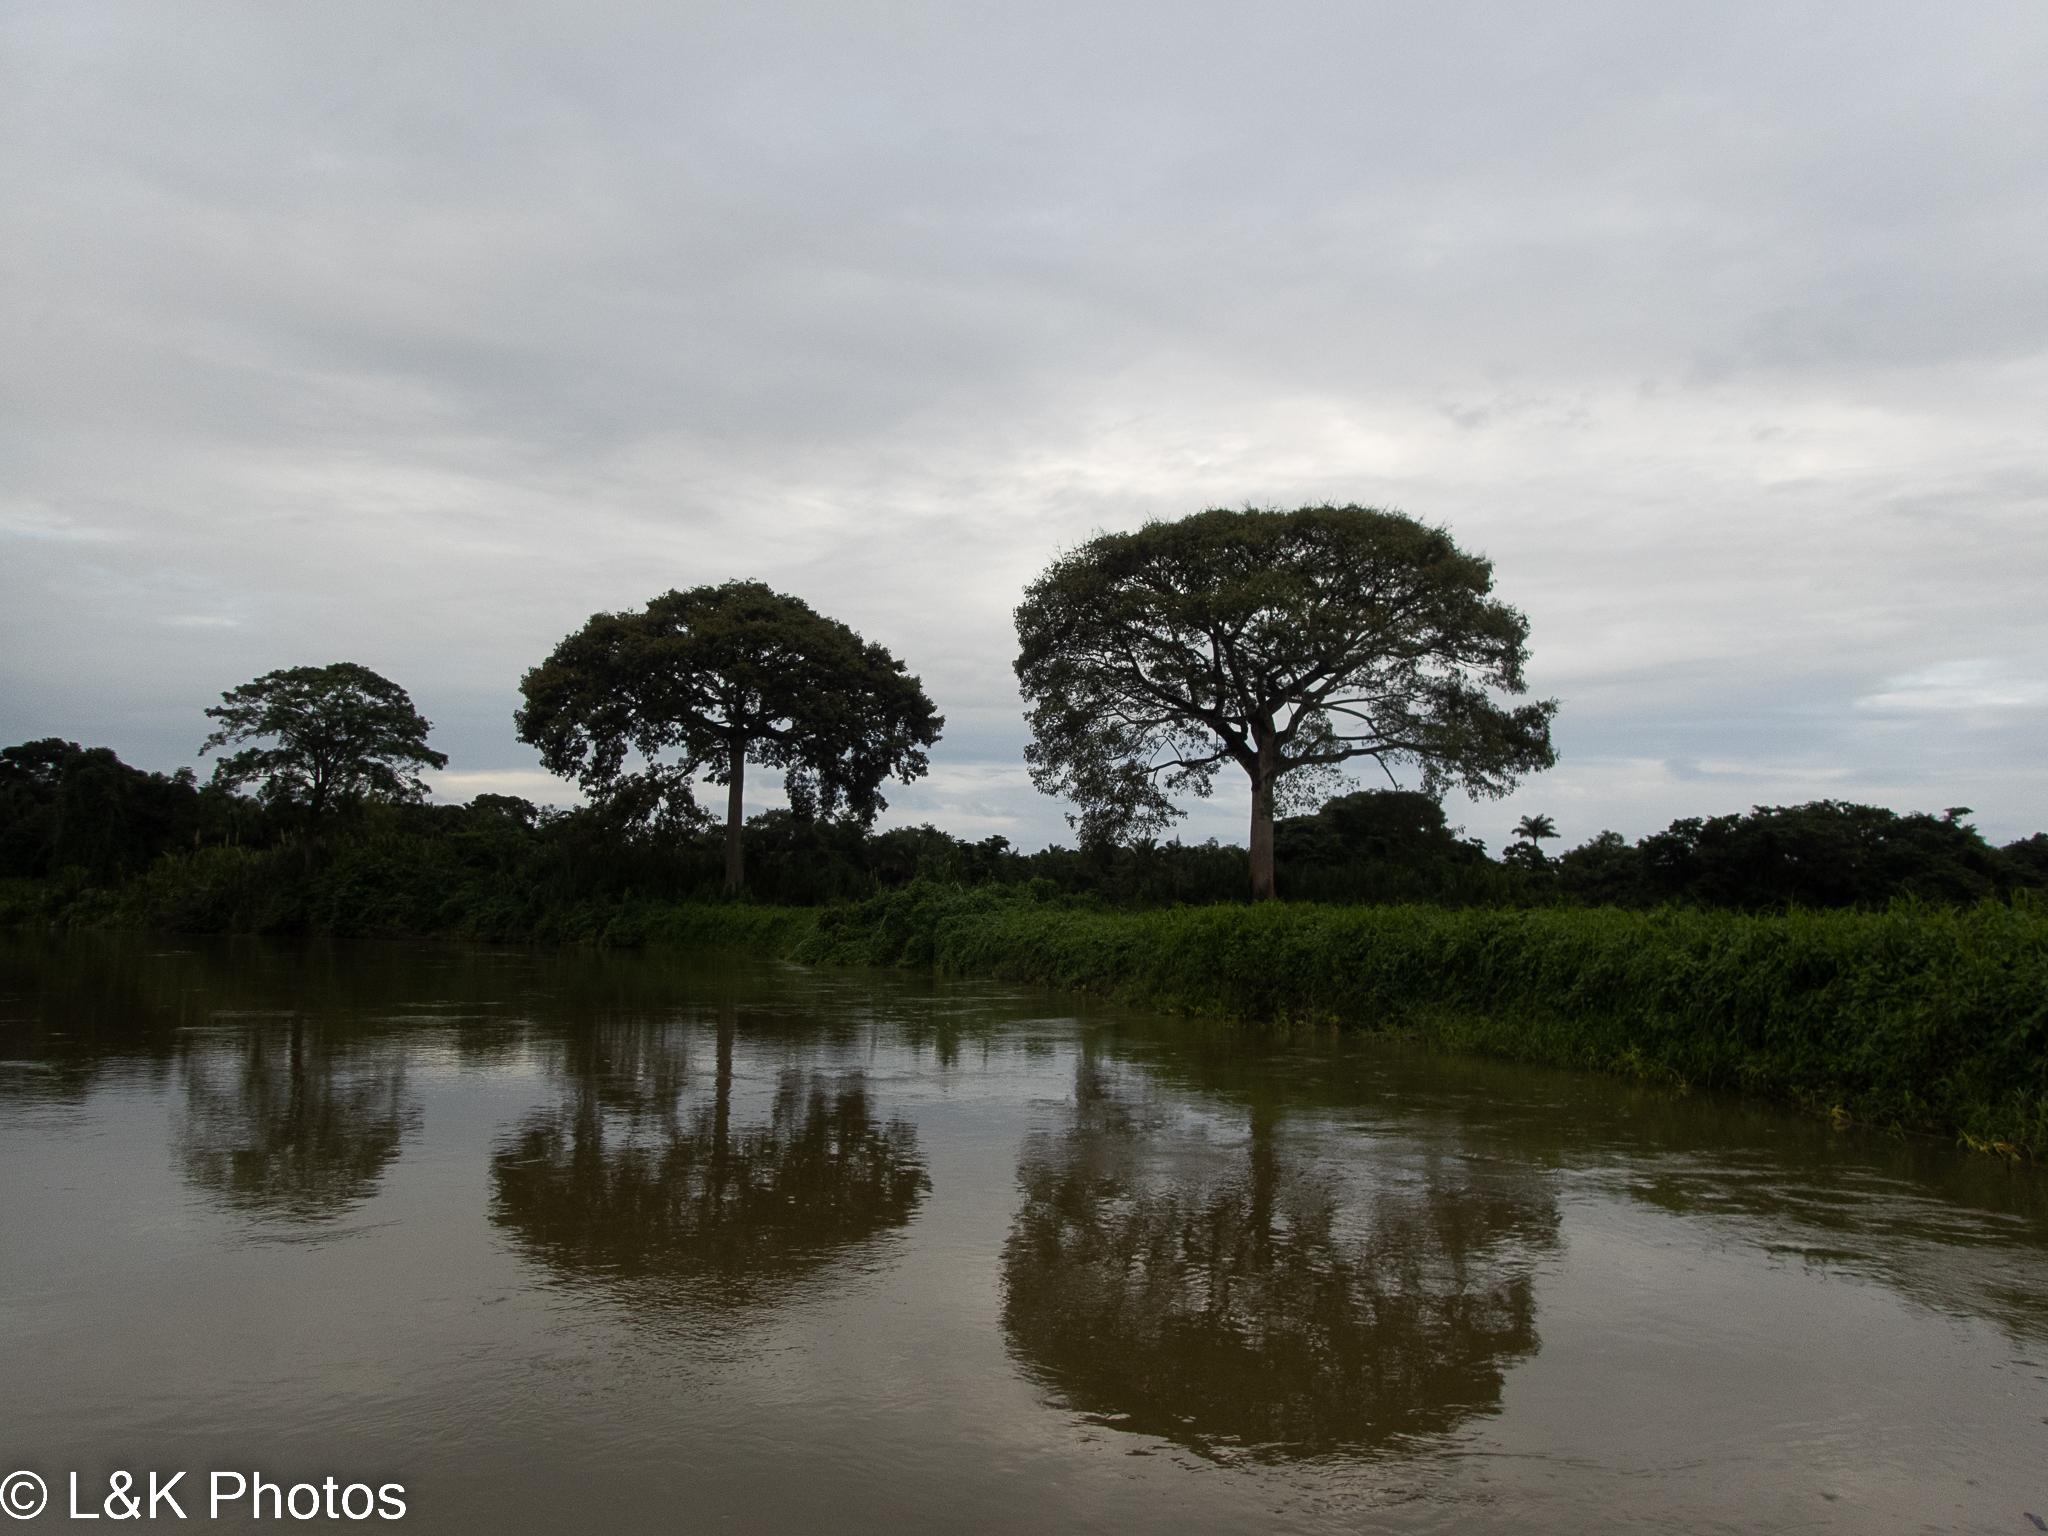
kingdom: Plantae
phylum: Tracheophyta
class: Magnoliopsida
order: Malvales
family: Malvaceae
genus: Ceiba
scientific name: Ceiba pentandra
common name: Kapok
